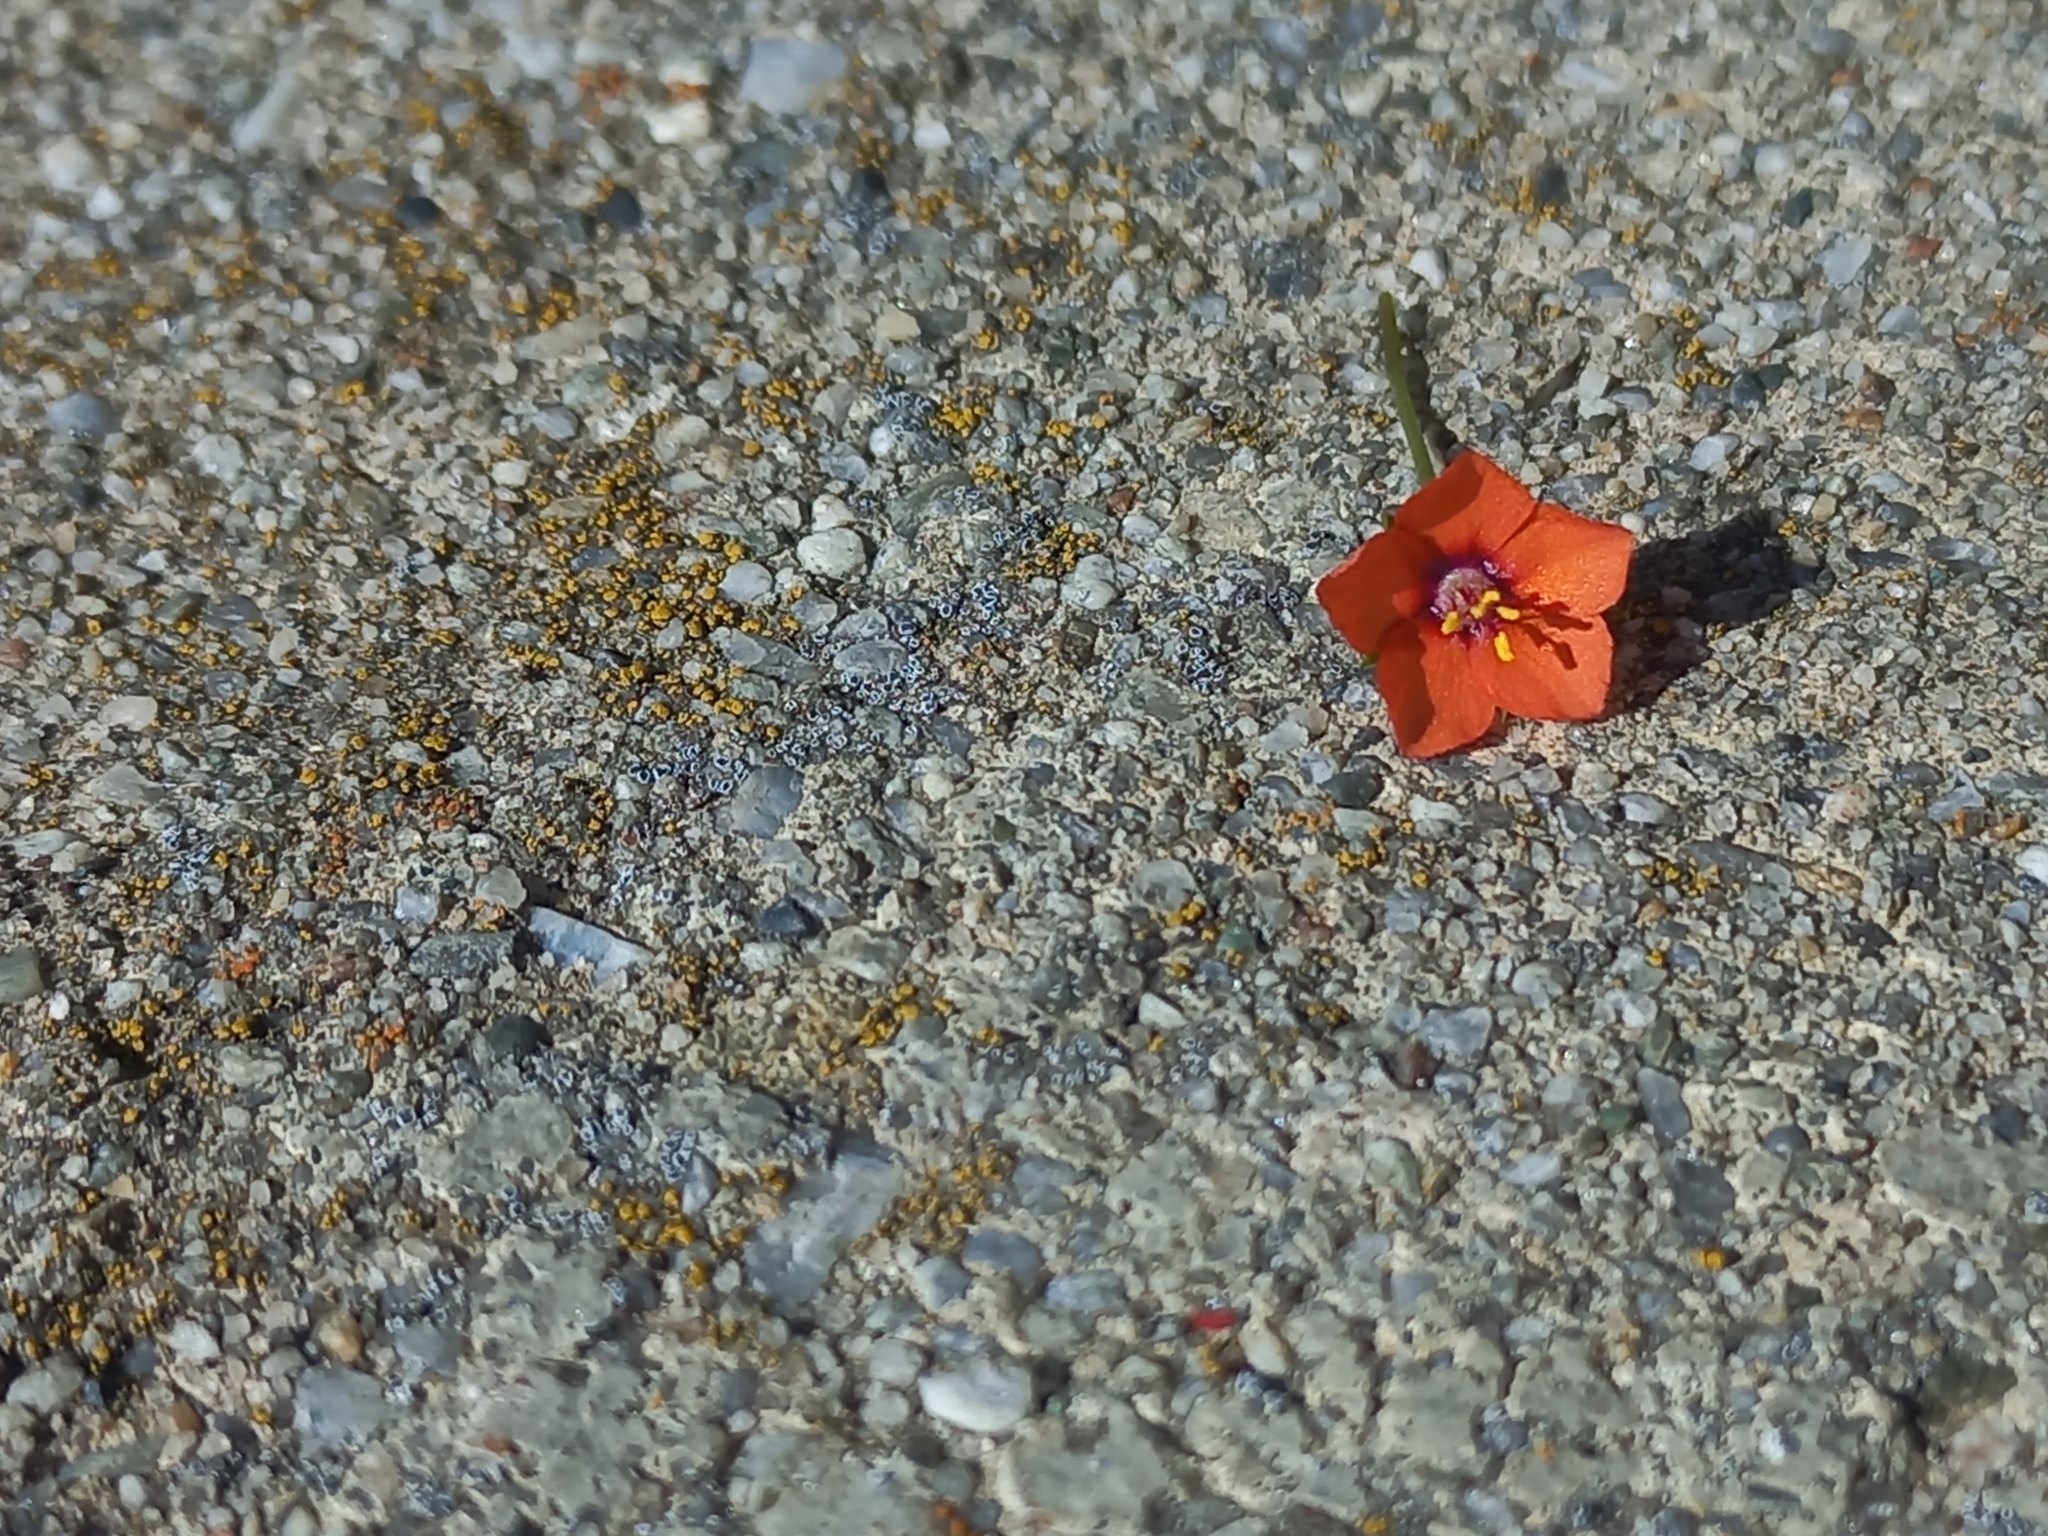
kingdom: Plantae
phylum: Tracheophyta
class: Magnoliopsida
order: Ericales
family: Primulaceae
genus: Lysimachia
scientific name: Lysimachia arvensis
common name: Scarlet pimpernel
